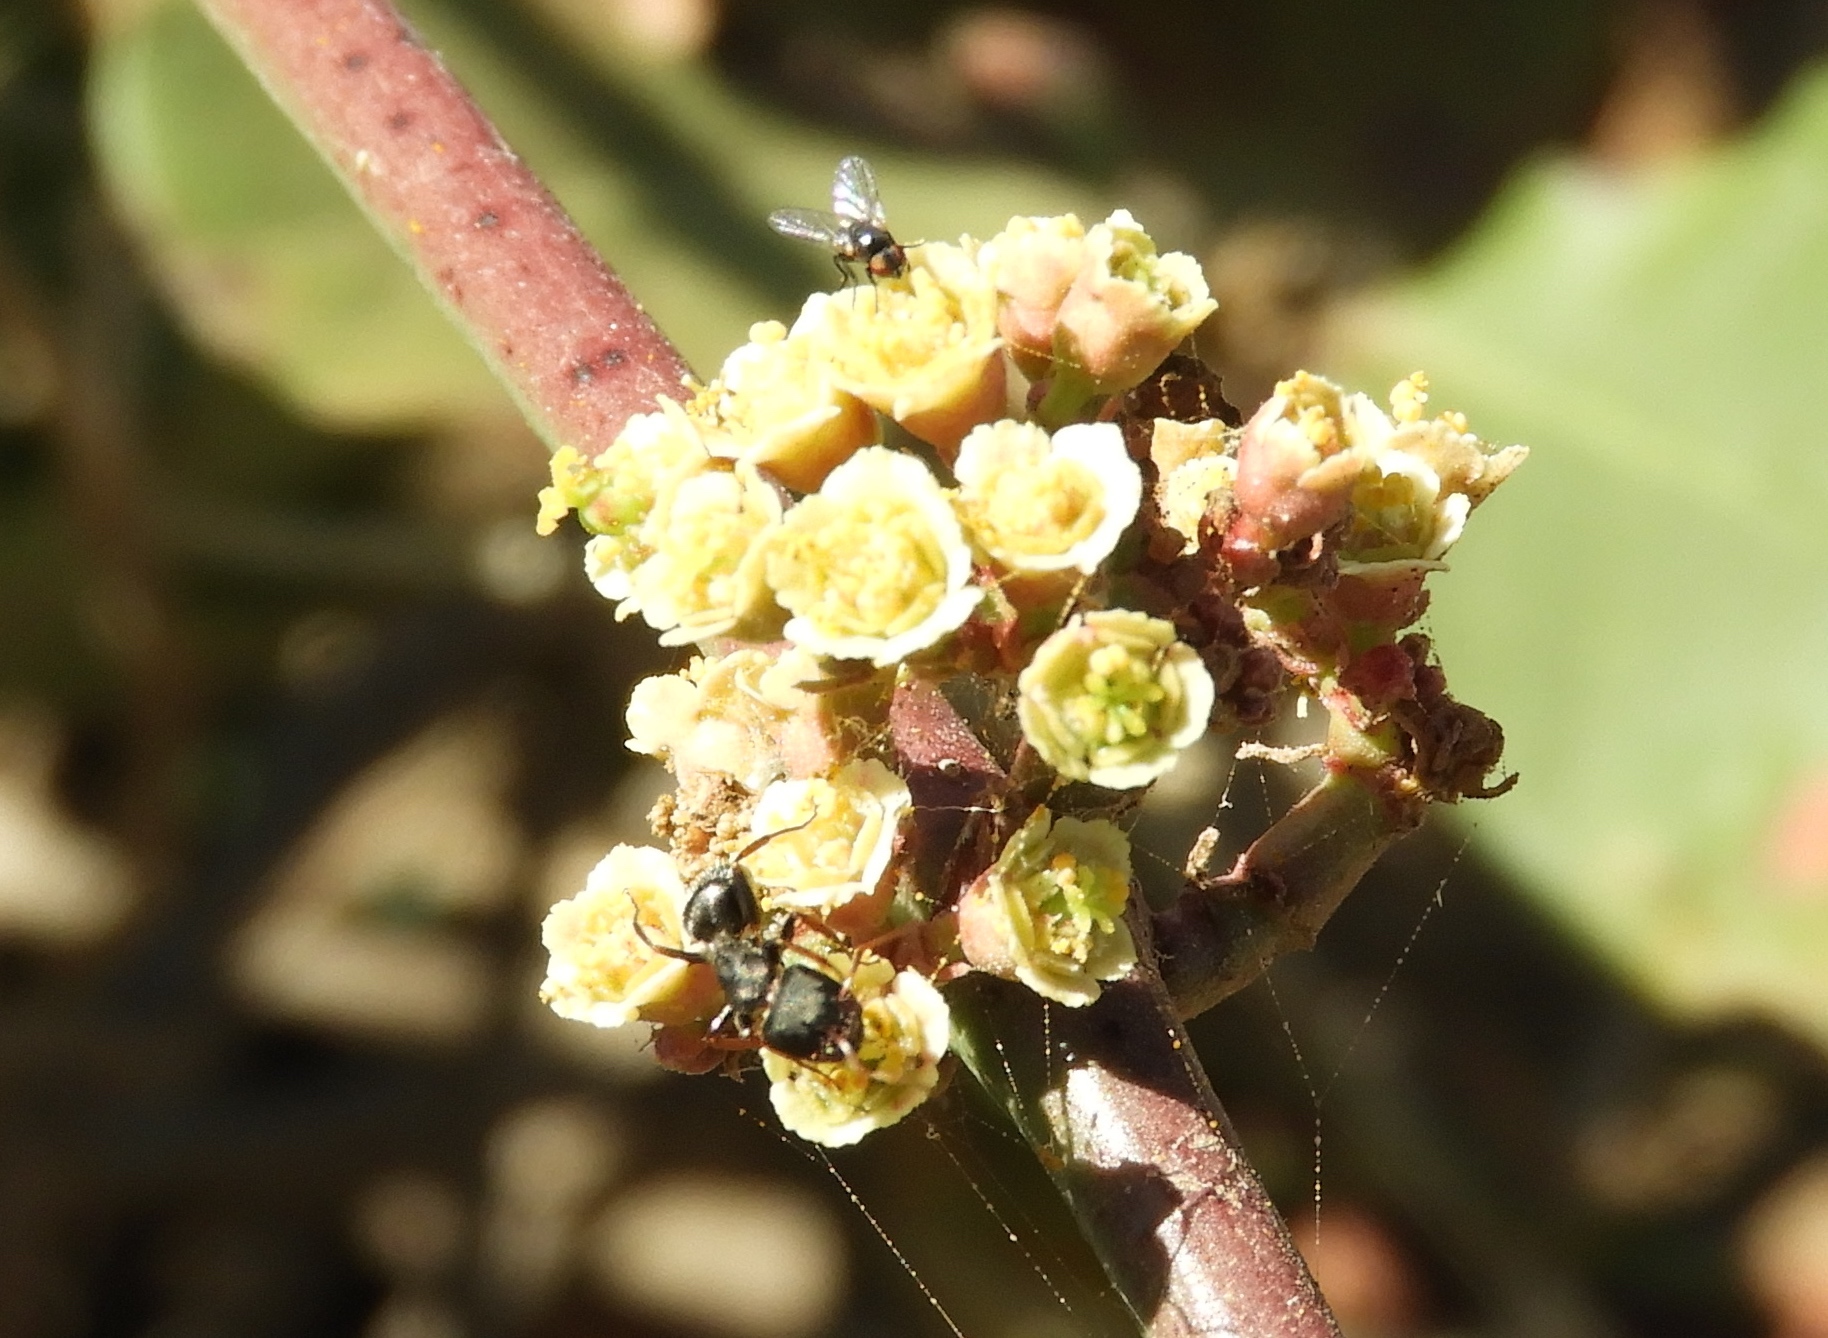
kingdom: Plantae
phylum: Tracheophyta
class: Magnoliopsida
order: Malpighiales
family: Euphorbiaceae
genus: Euphorbia
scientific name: Euphorbia colletioides
